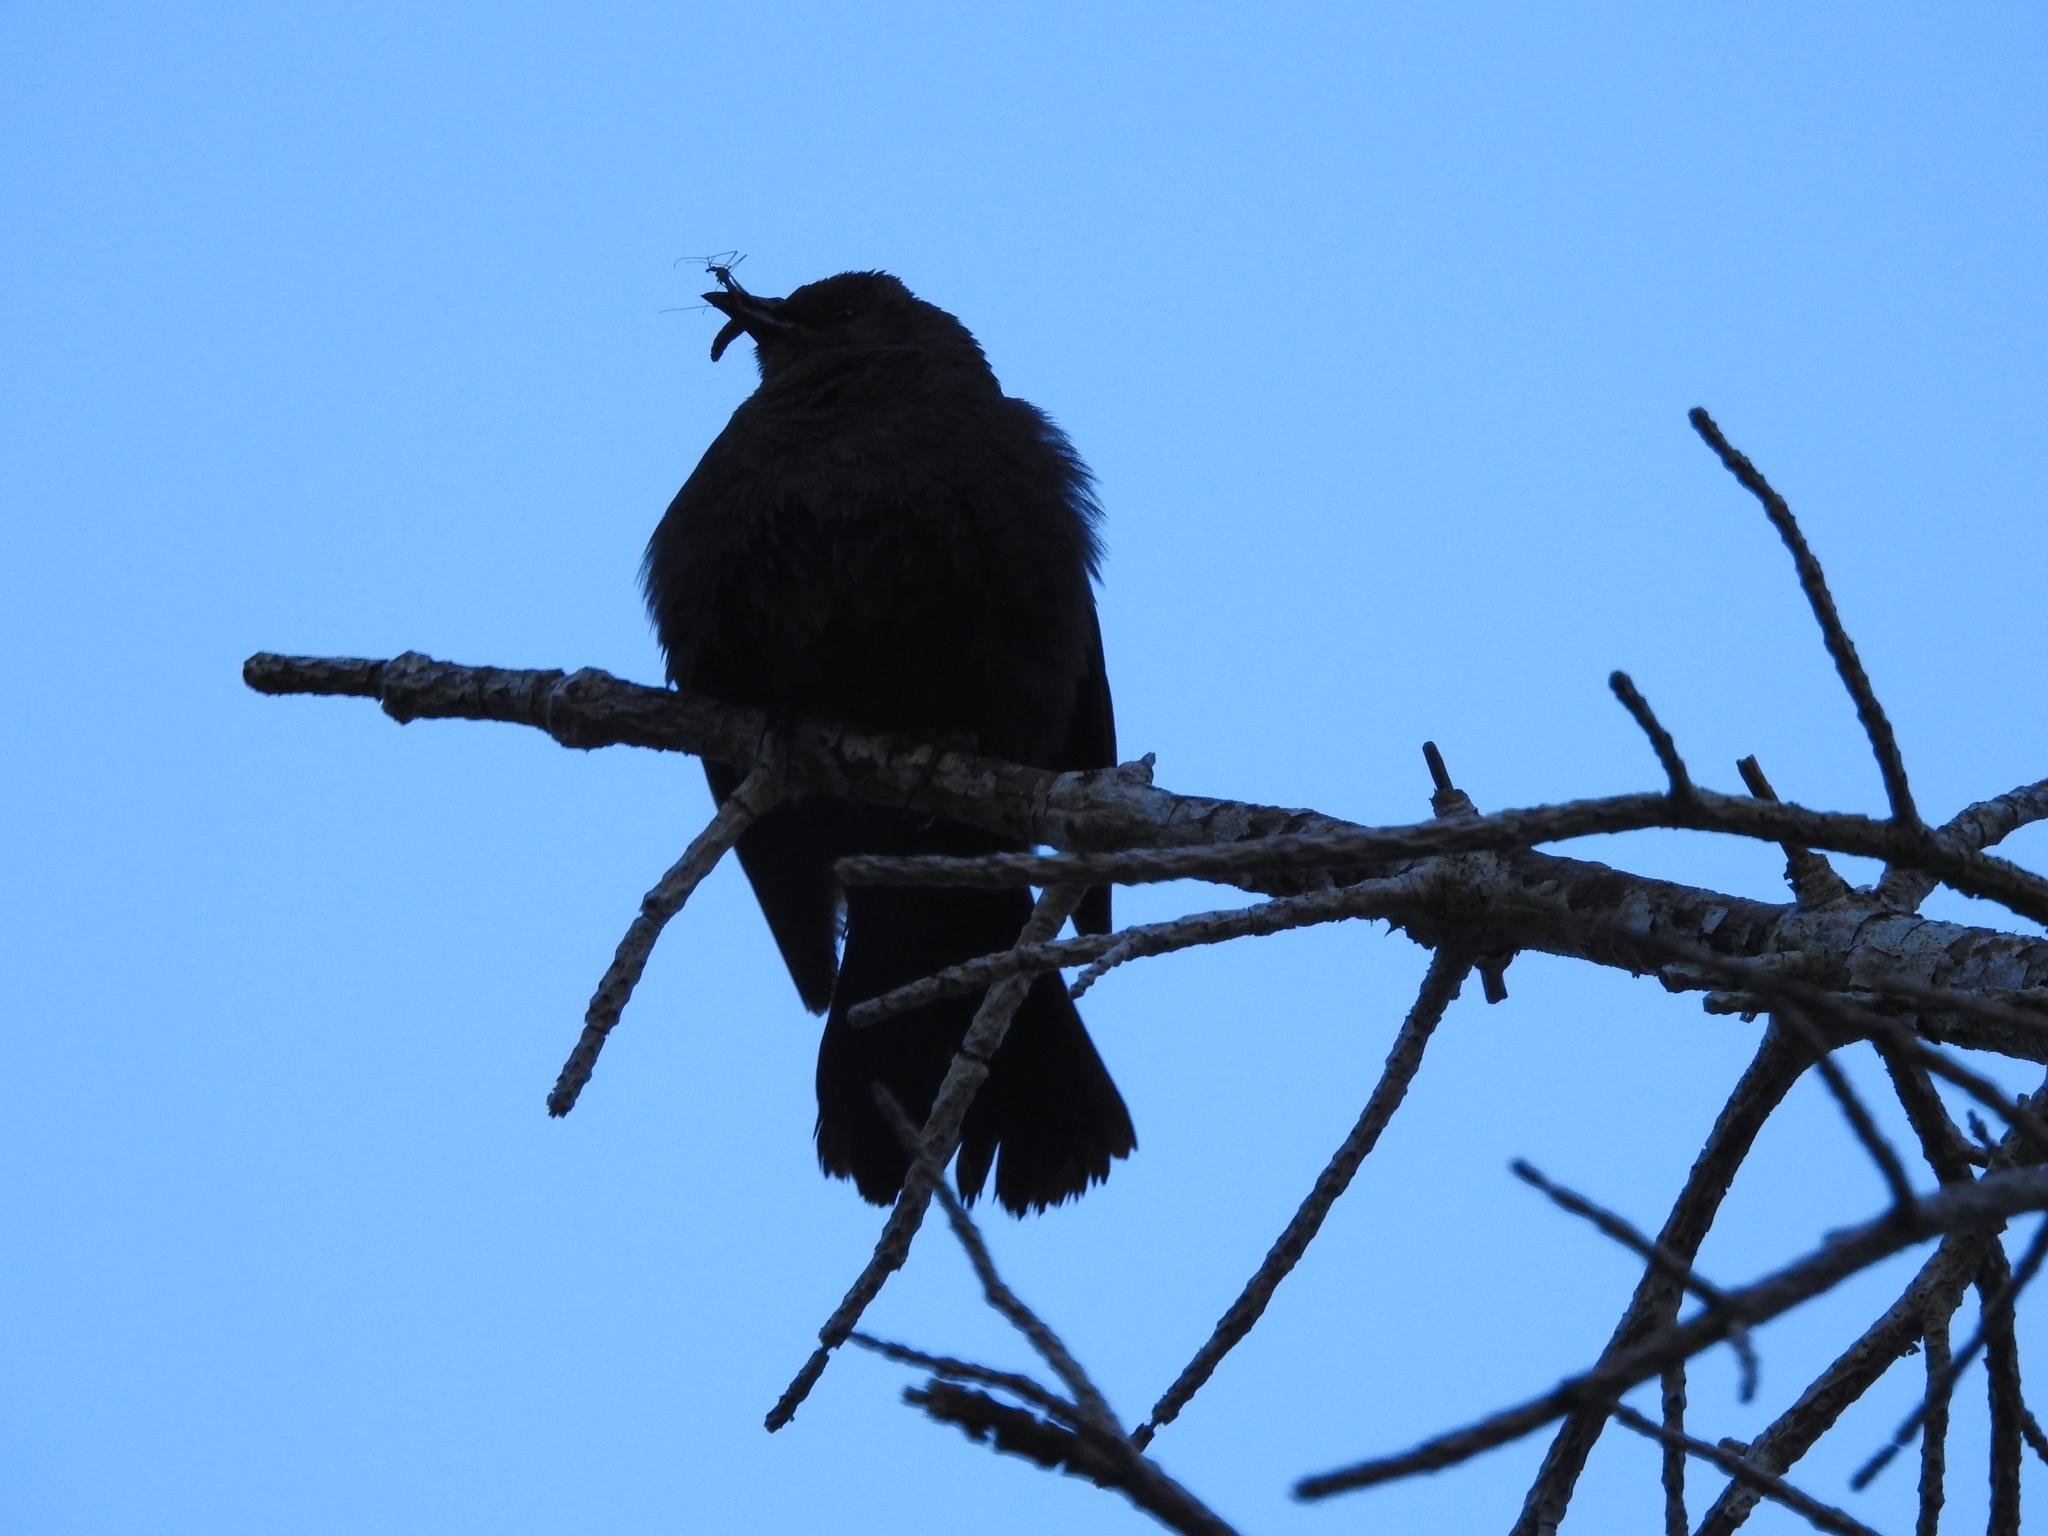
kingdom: Animalia
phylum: Chordata
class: Aves
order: Passeriformes
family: Icteridae
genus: Euphagus
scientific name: Euphagus cyanocephalus
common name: Brewer's blackbird
